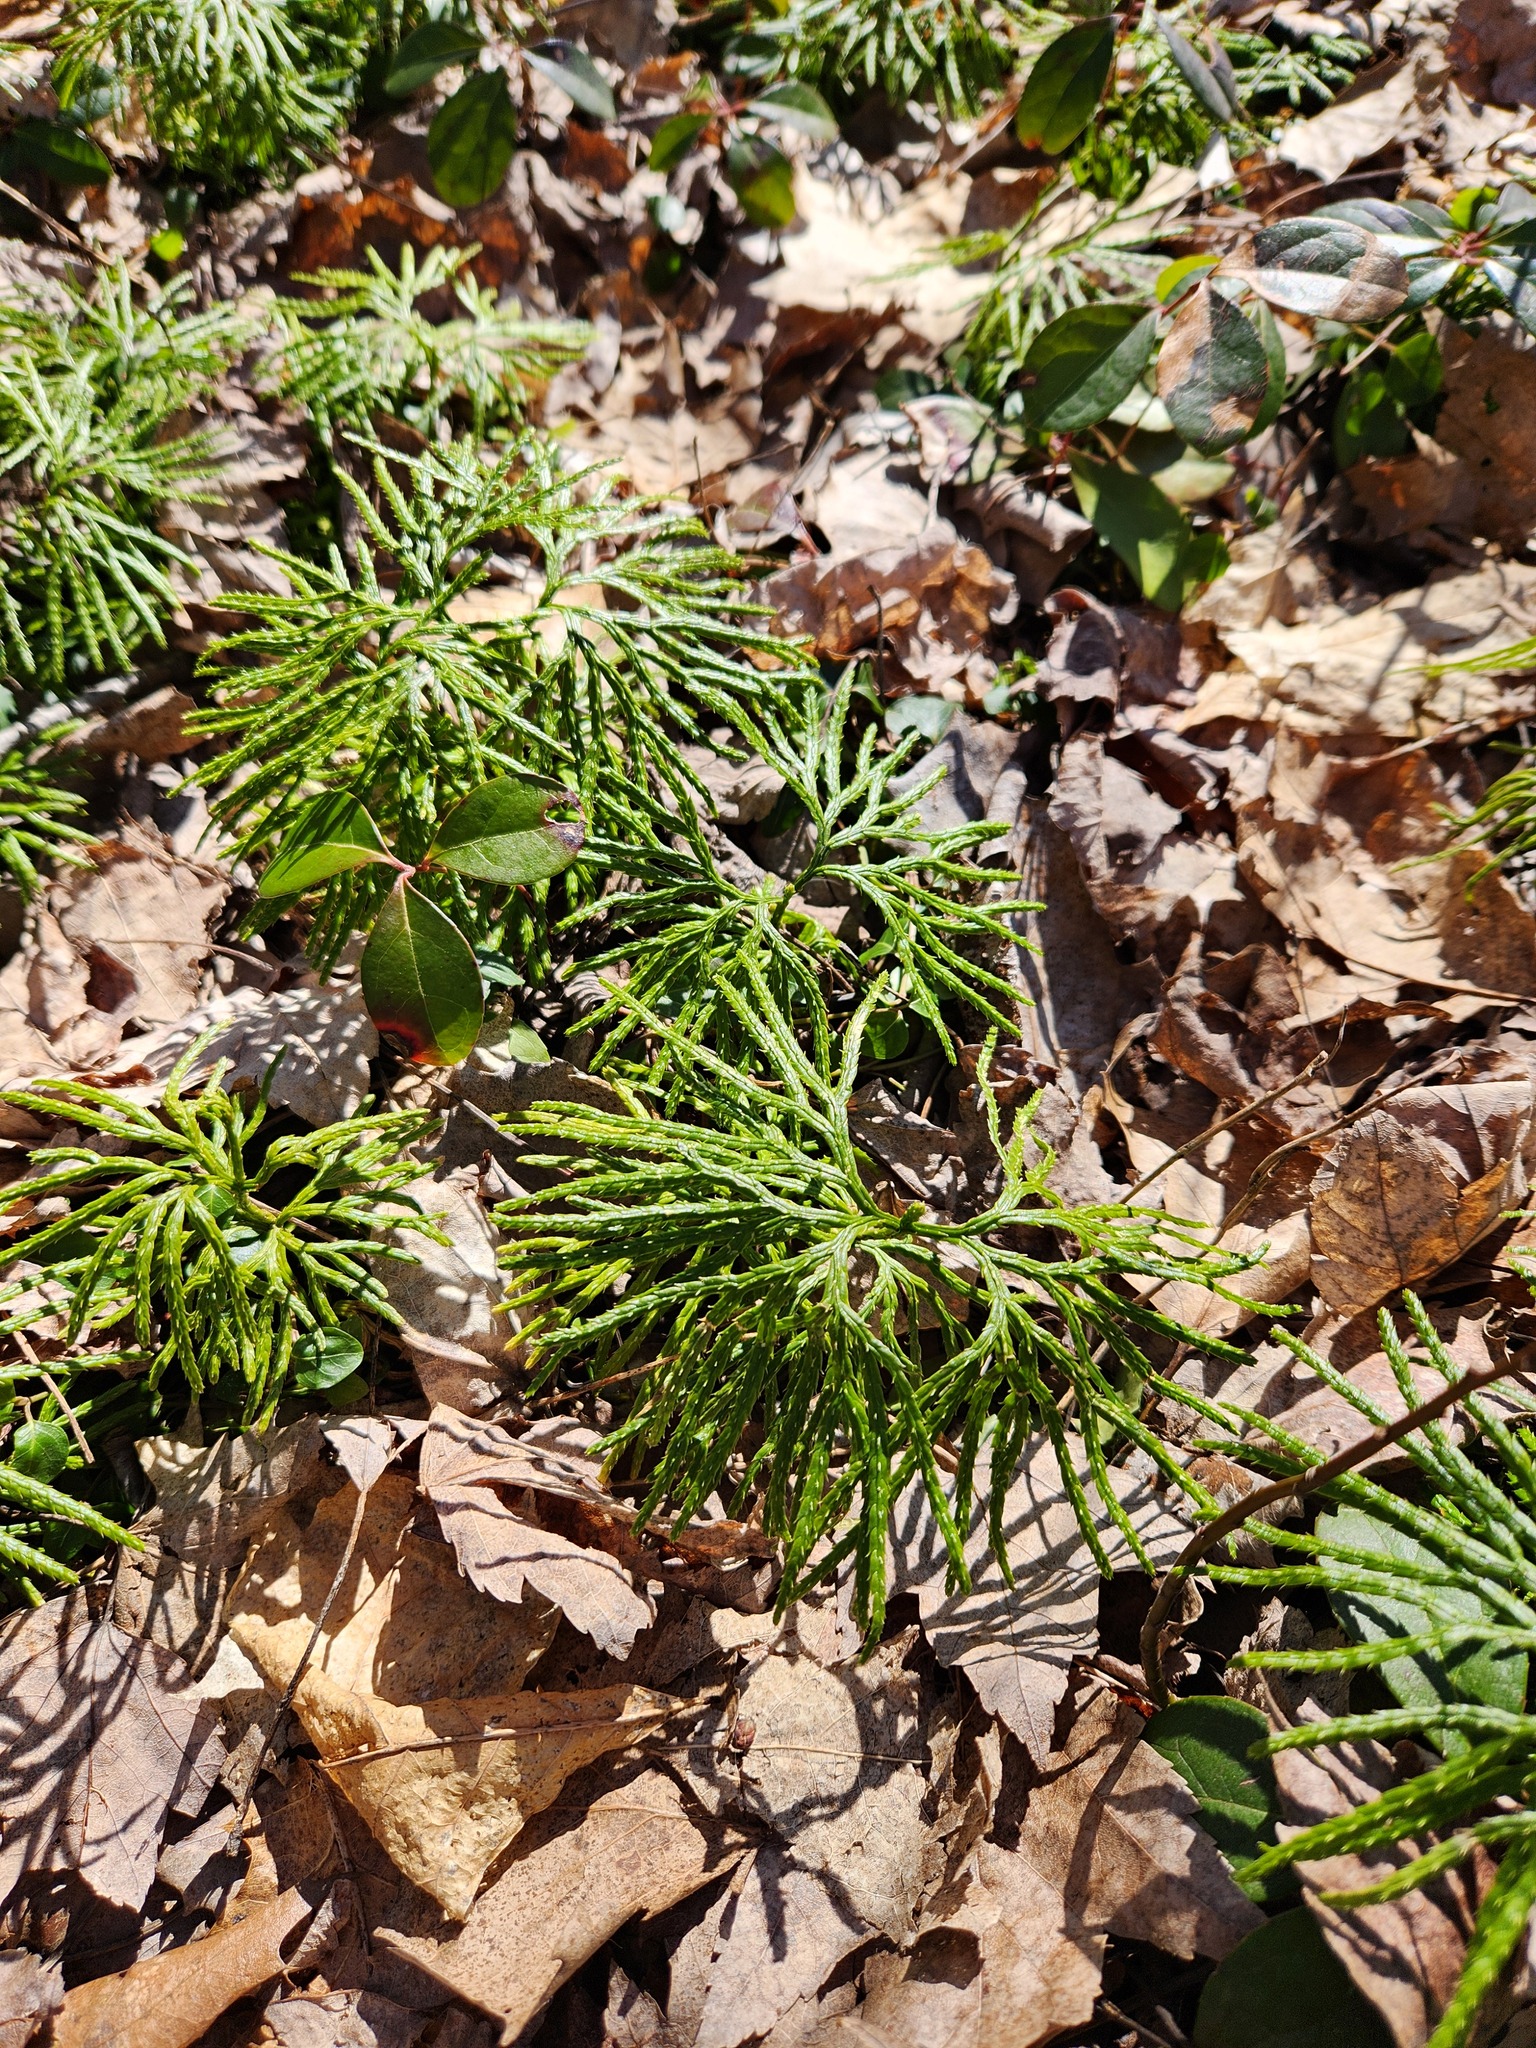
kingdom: Plantae
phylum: Tracheophyta
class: Lycopodiopsida
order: Lycopodiales
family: Lycopodiaceae
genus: Diphasiastrum
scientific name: Diphasiastrum digitatum
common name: Southern running-pine
